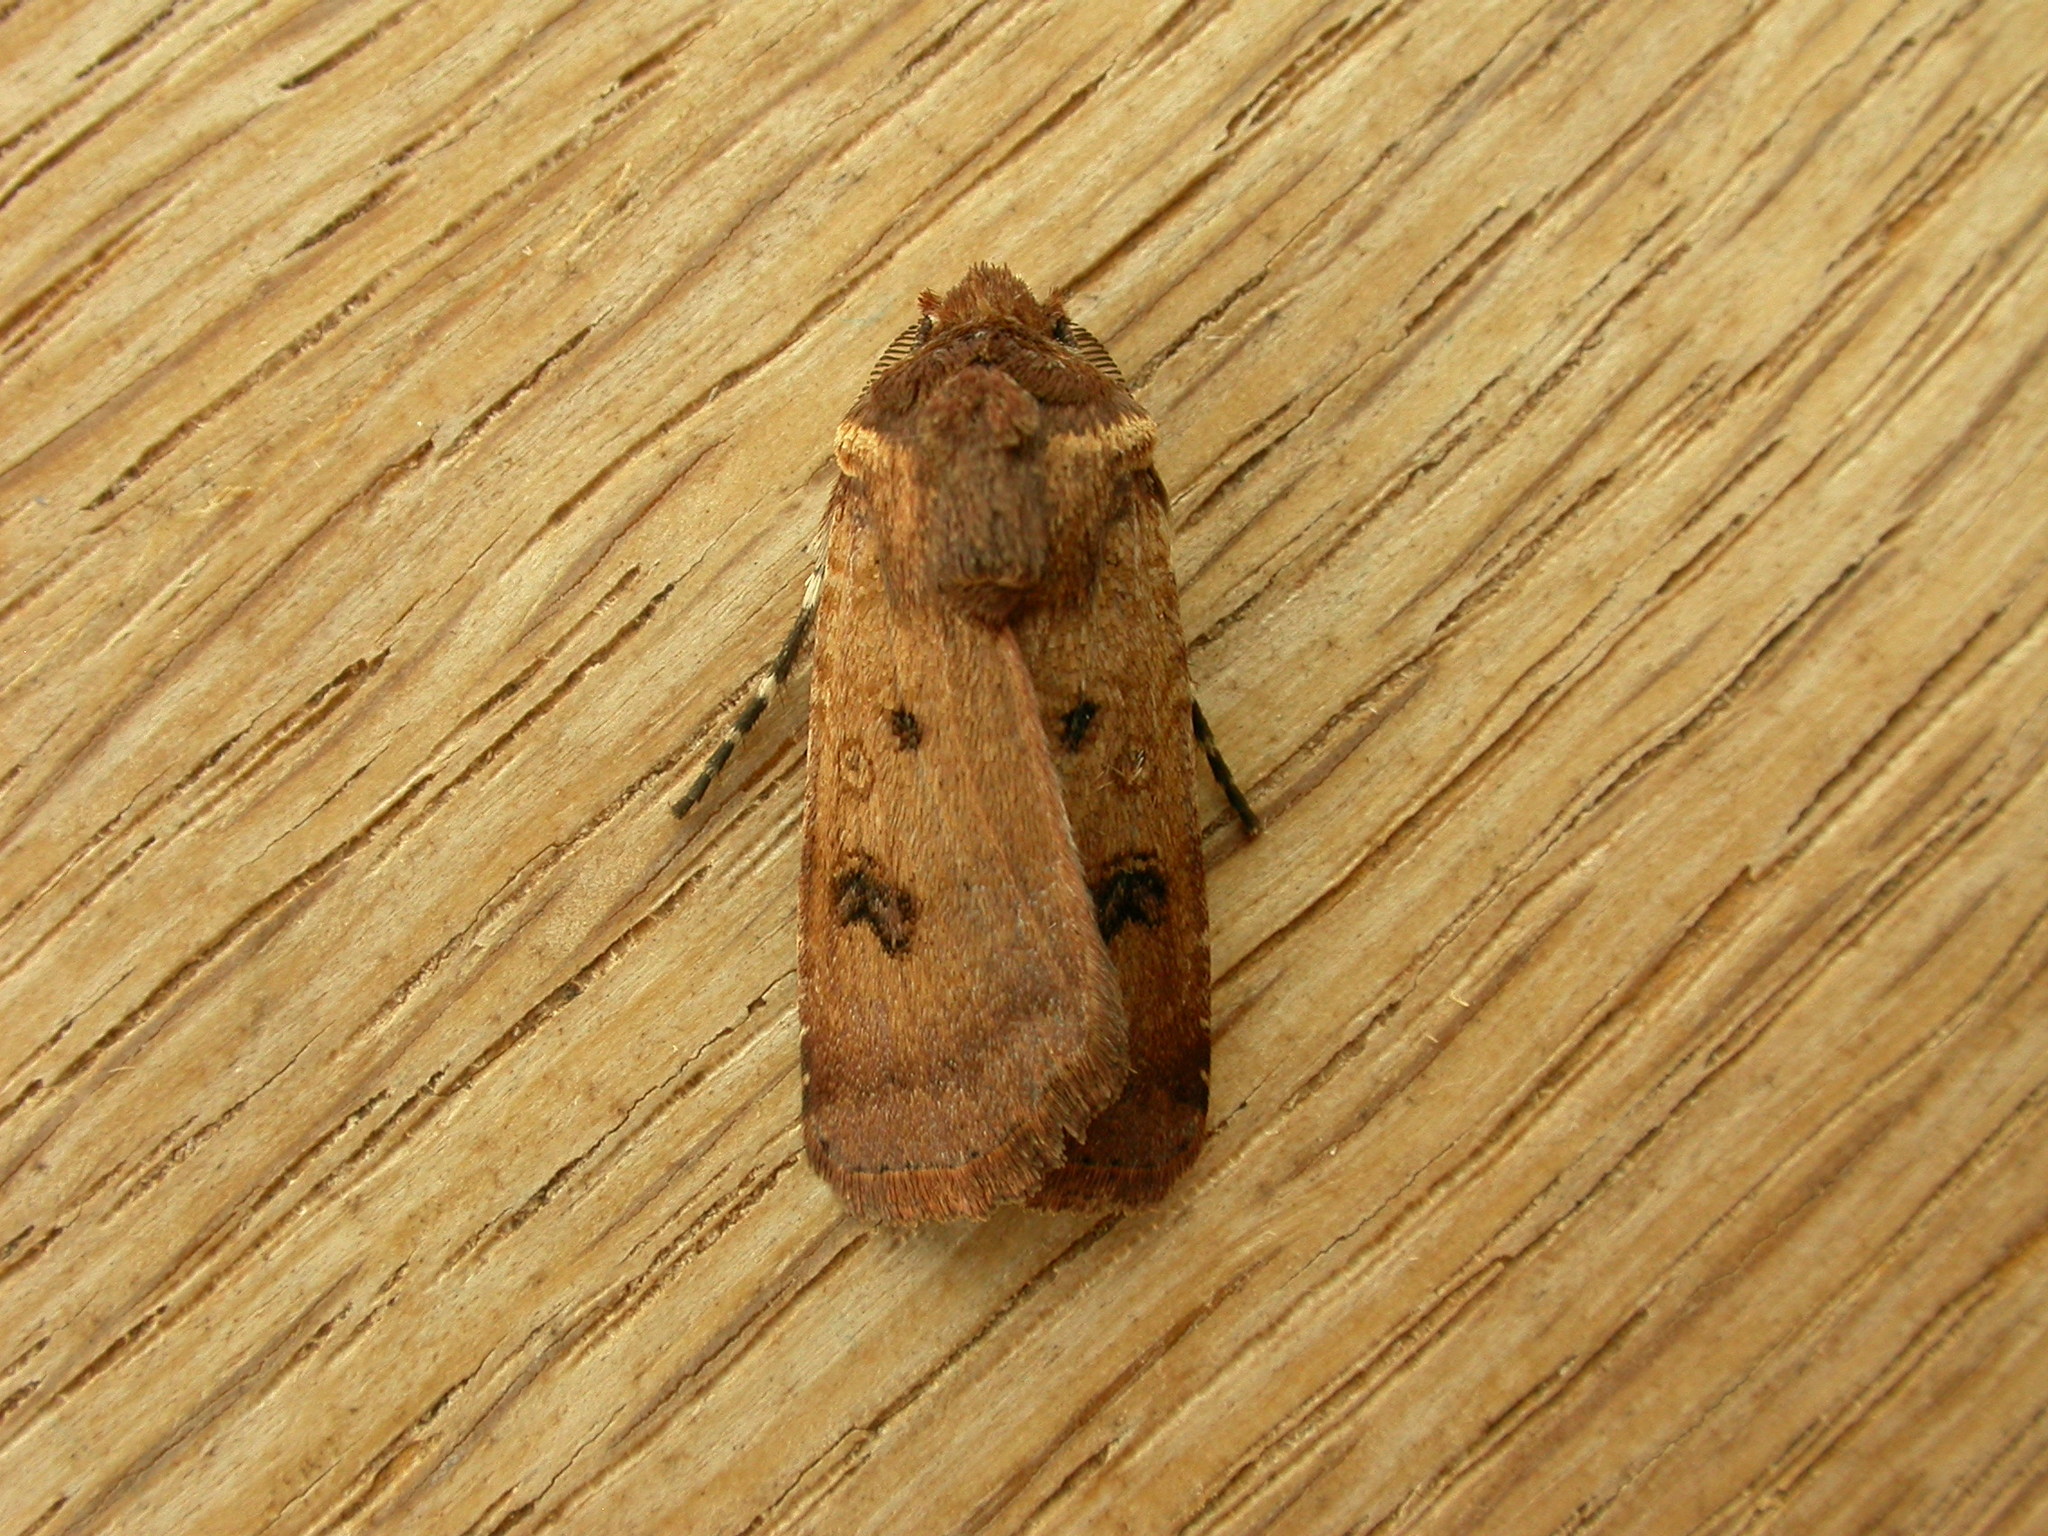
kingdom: Animalia
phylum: Arthropoda
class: Insecta
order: Lepidoptera
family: Noctuidae
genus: Agrotis
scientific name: Agrotis porphyricollis
